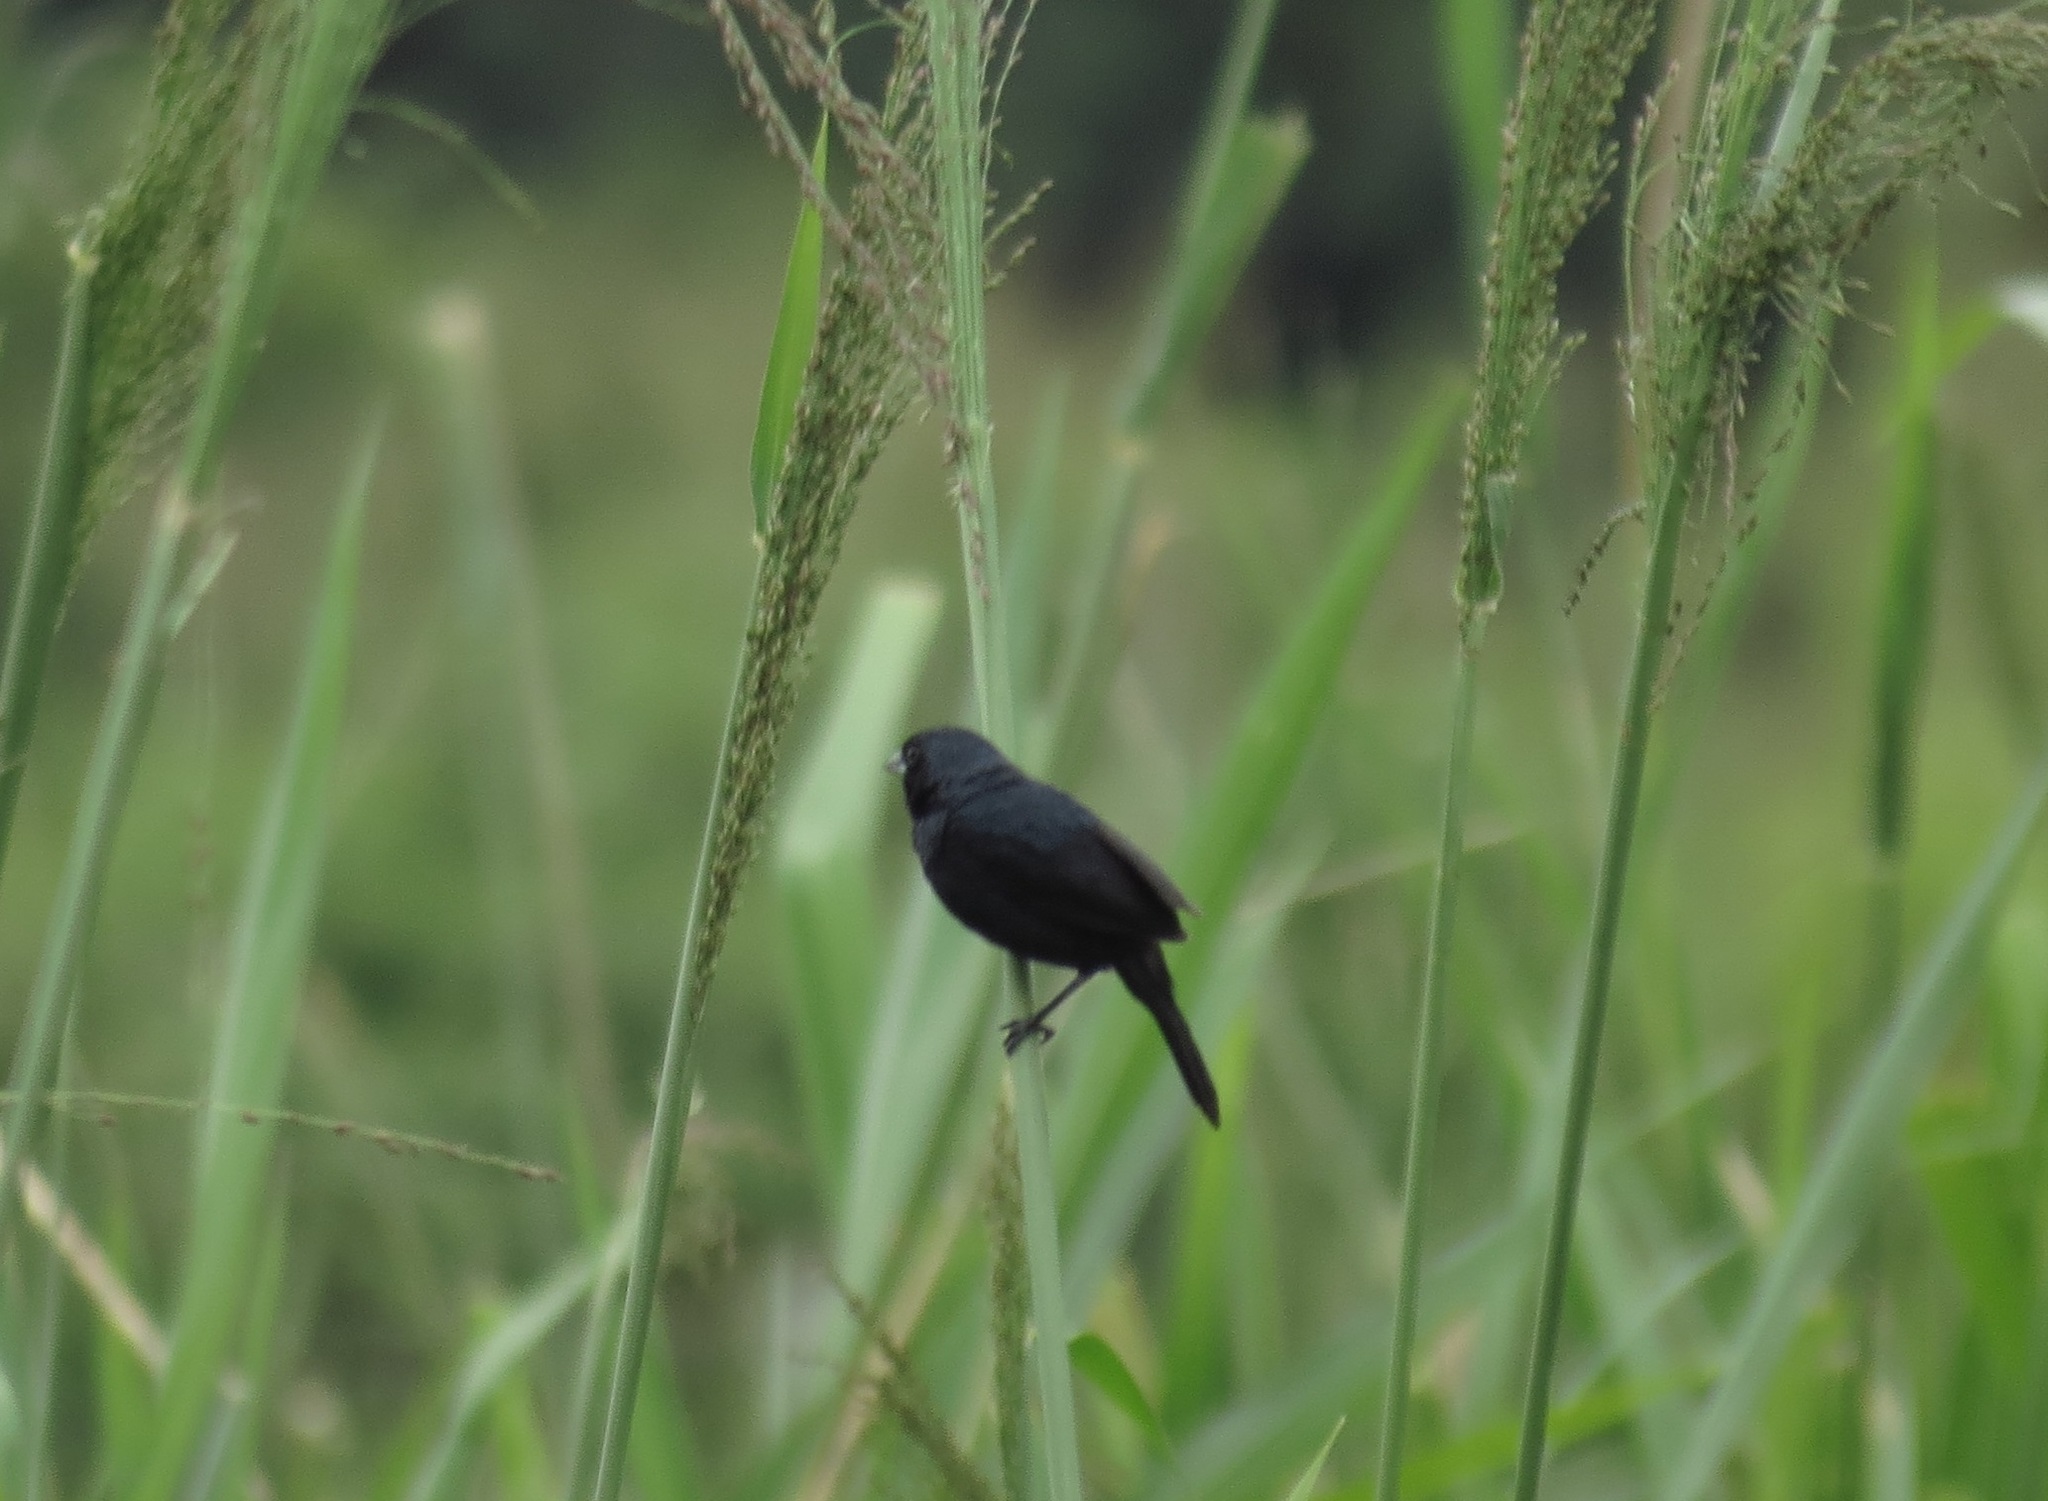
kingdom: Animalia
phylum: Chordata
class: Aves
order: Passeriformes
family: Thraupidae
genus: Volatinia
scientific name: Volatinia jacarina
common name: Blue-black grassquit
